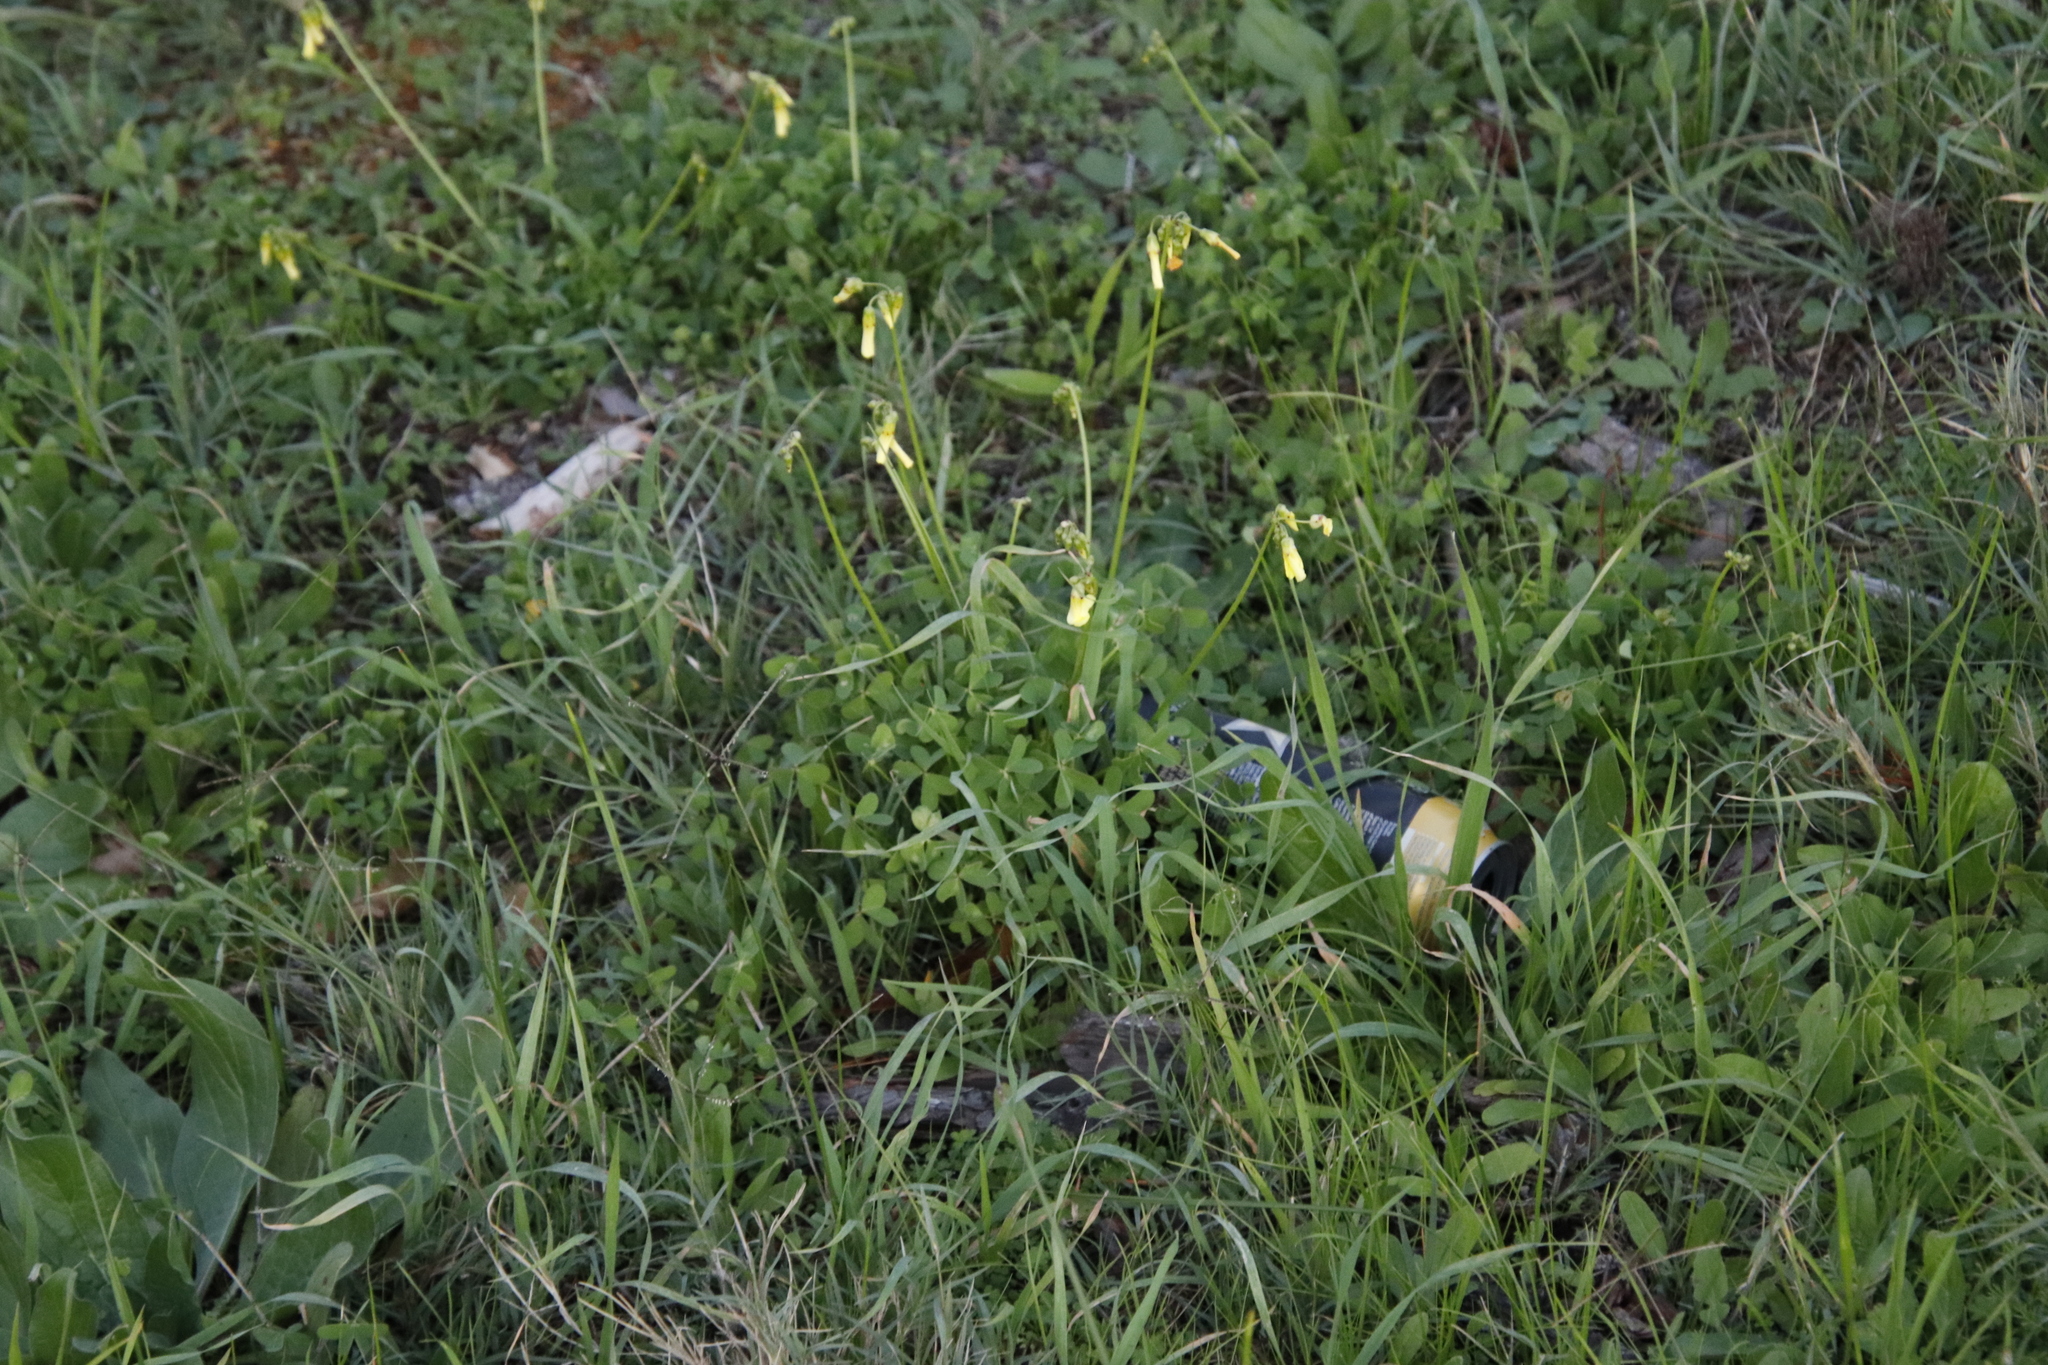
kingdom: Plantae
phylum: Tracheophyta
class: Magnoliopsida
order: Oxalidales
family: Oxalidaceae
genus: Oxalis
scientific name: Oxalis pes-caprae
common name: Bermuda-buttercup
